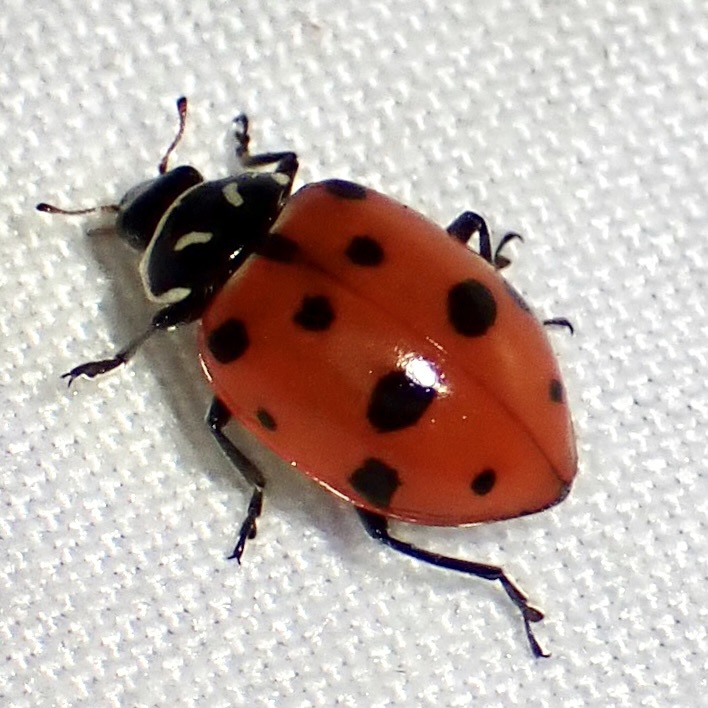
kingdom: Animalia
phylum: Arthropoda
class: Insecta
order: Coleoptera
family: Coccinellidae
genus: Hippodamia
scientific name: Hippodamia convergens
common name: Convergent lady beetle
